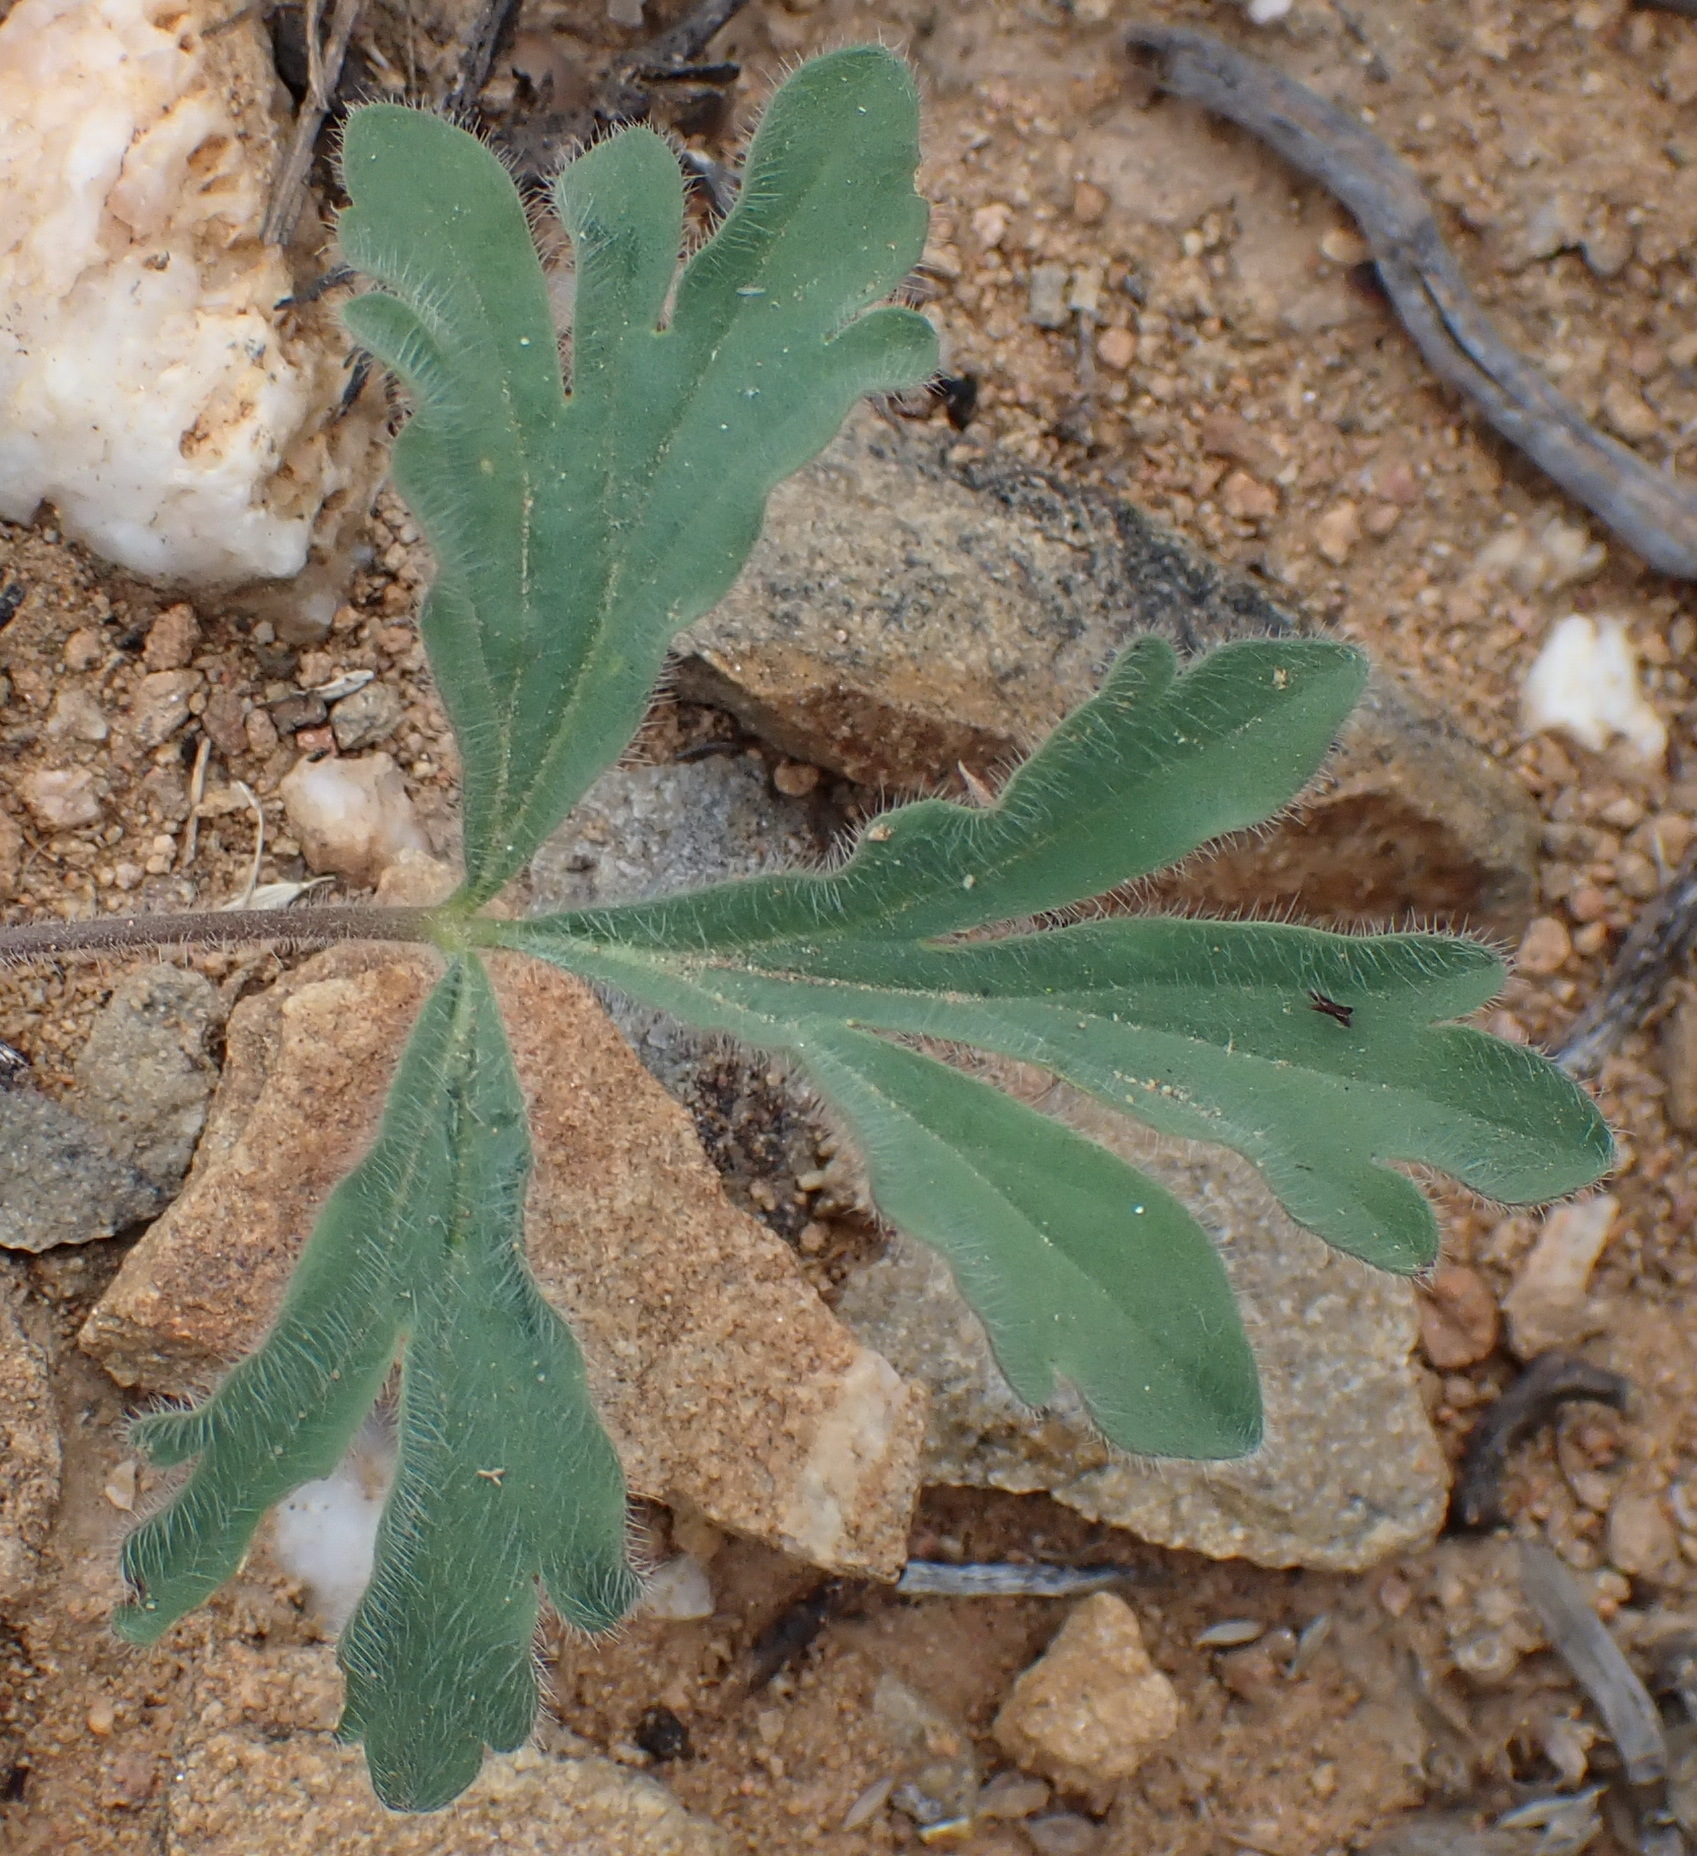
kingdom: Plantae
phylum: Tracheophyta
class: Magnoliopsida
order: Geraniales
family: Geraniaceae
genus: Pelargonium
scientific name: Pelargonium gracillimum
